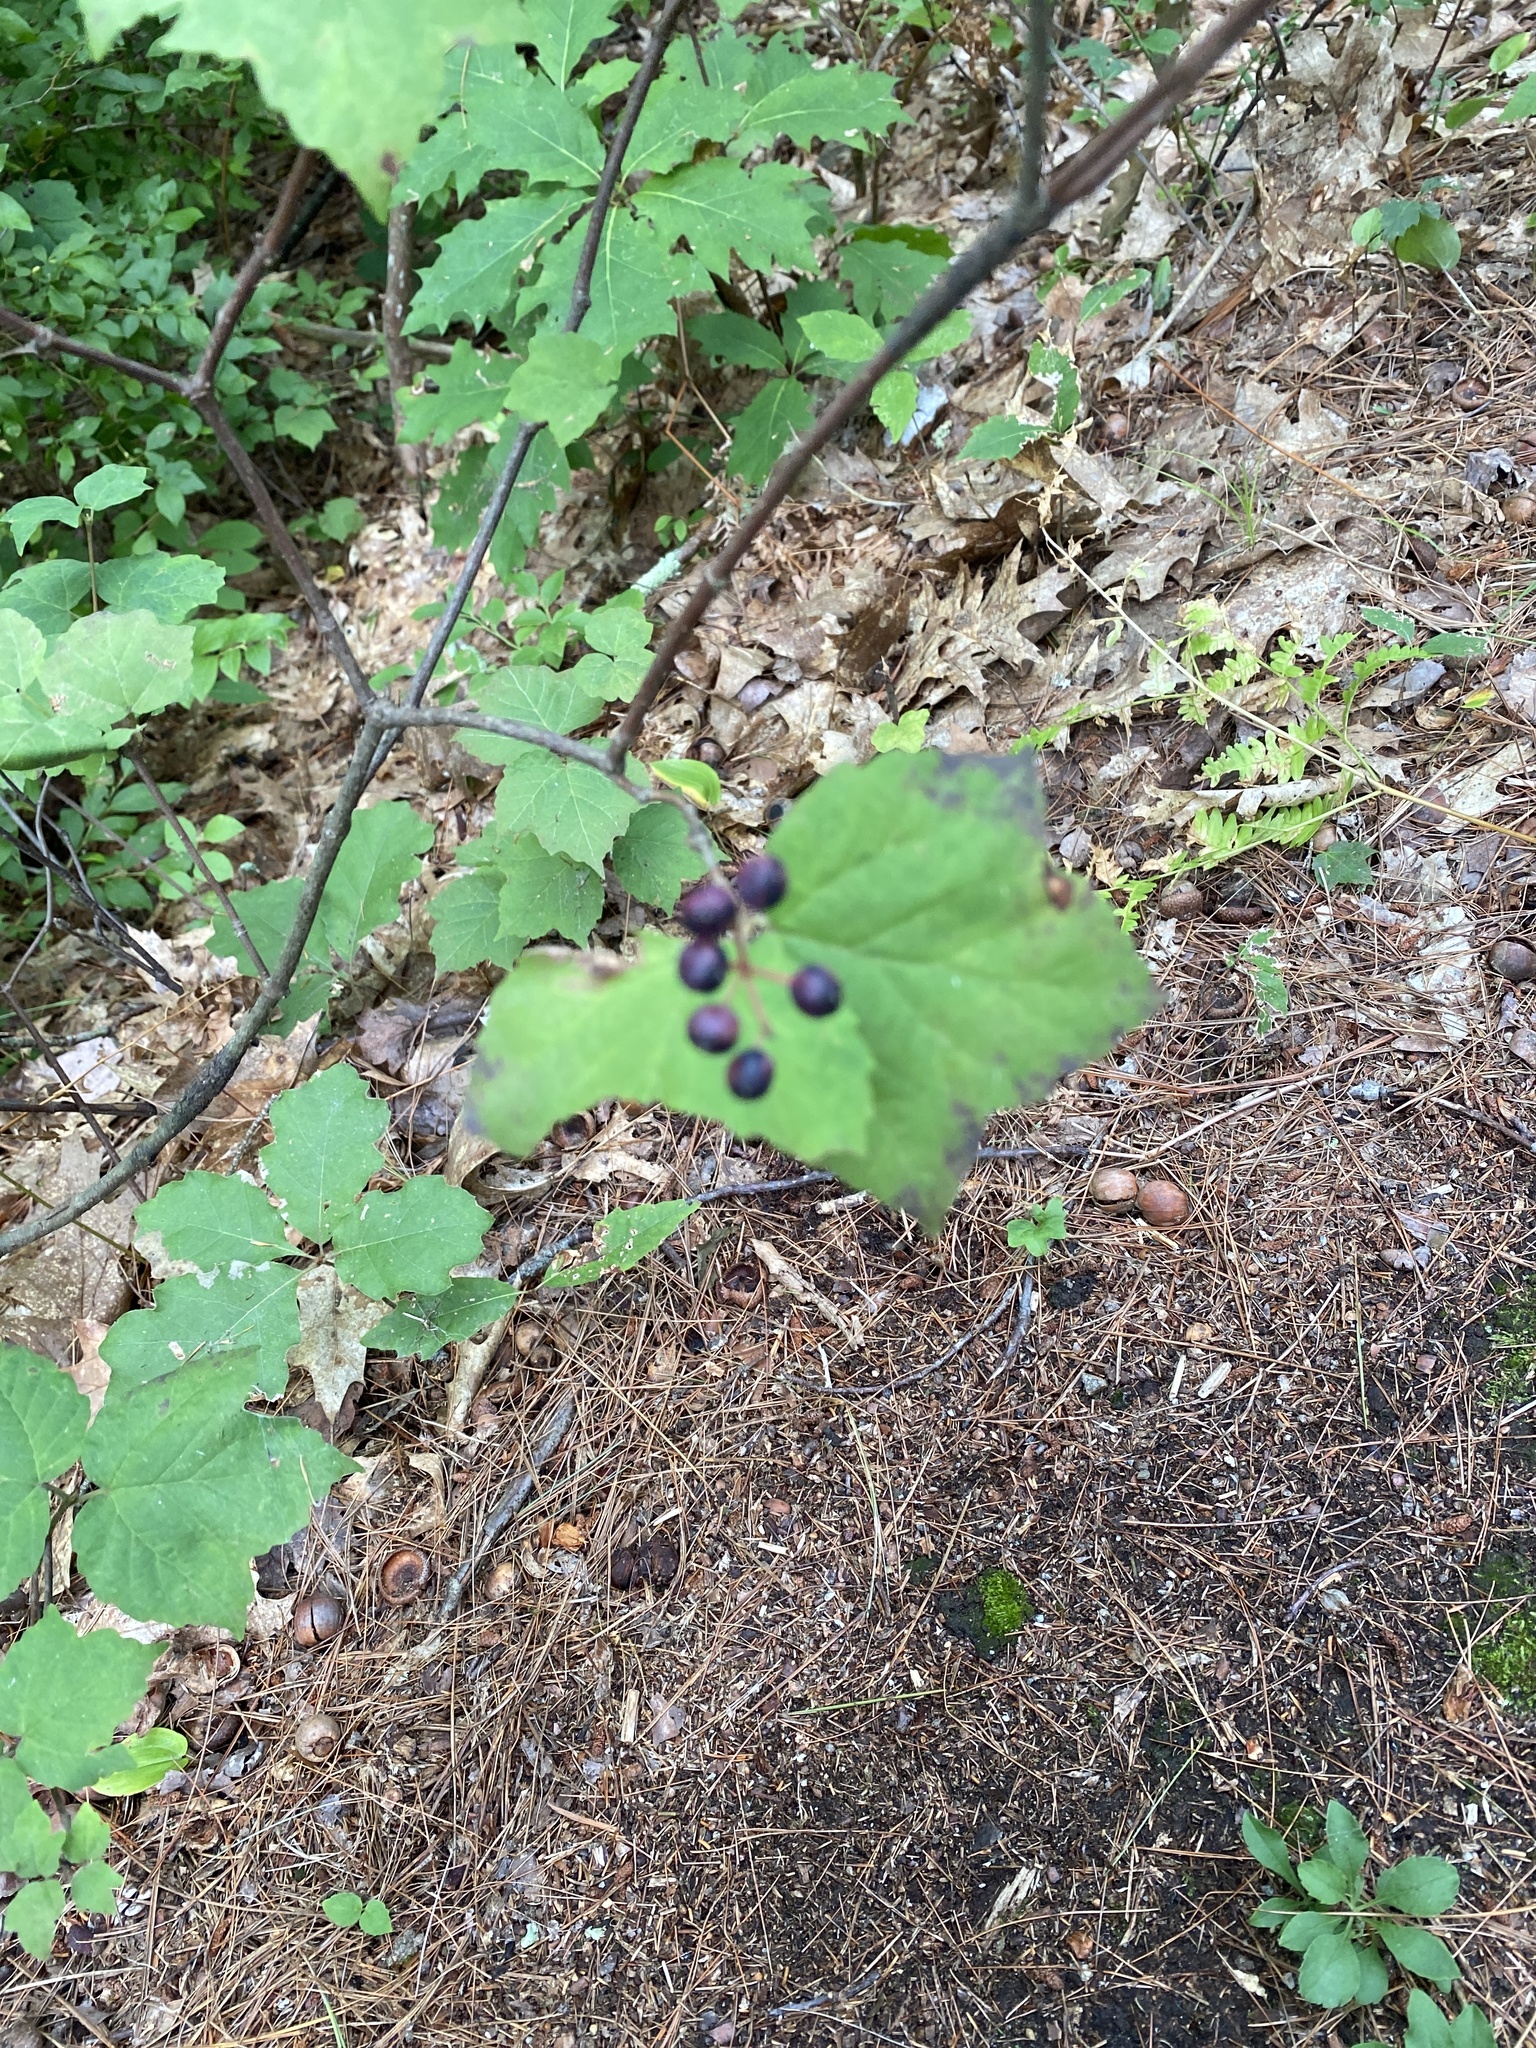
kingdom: Plantae
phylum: Tracheophyta
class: Magnoliopsida
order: Dipsacales
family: Viburnaceae
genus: Viburnum
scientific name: Viburnum acerifolium
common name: Dockmackie
